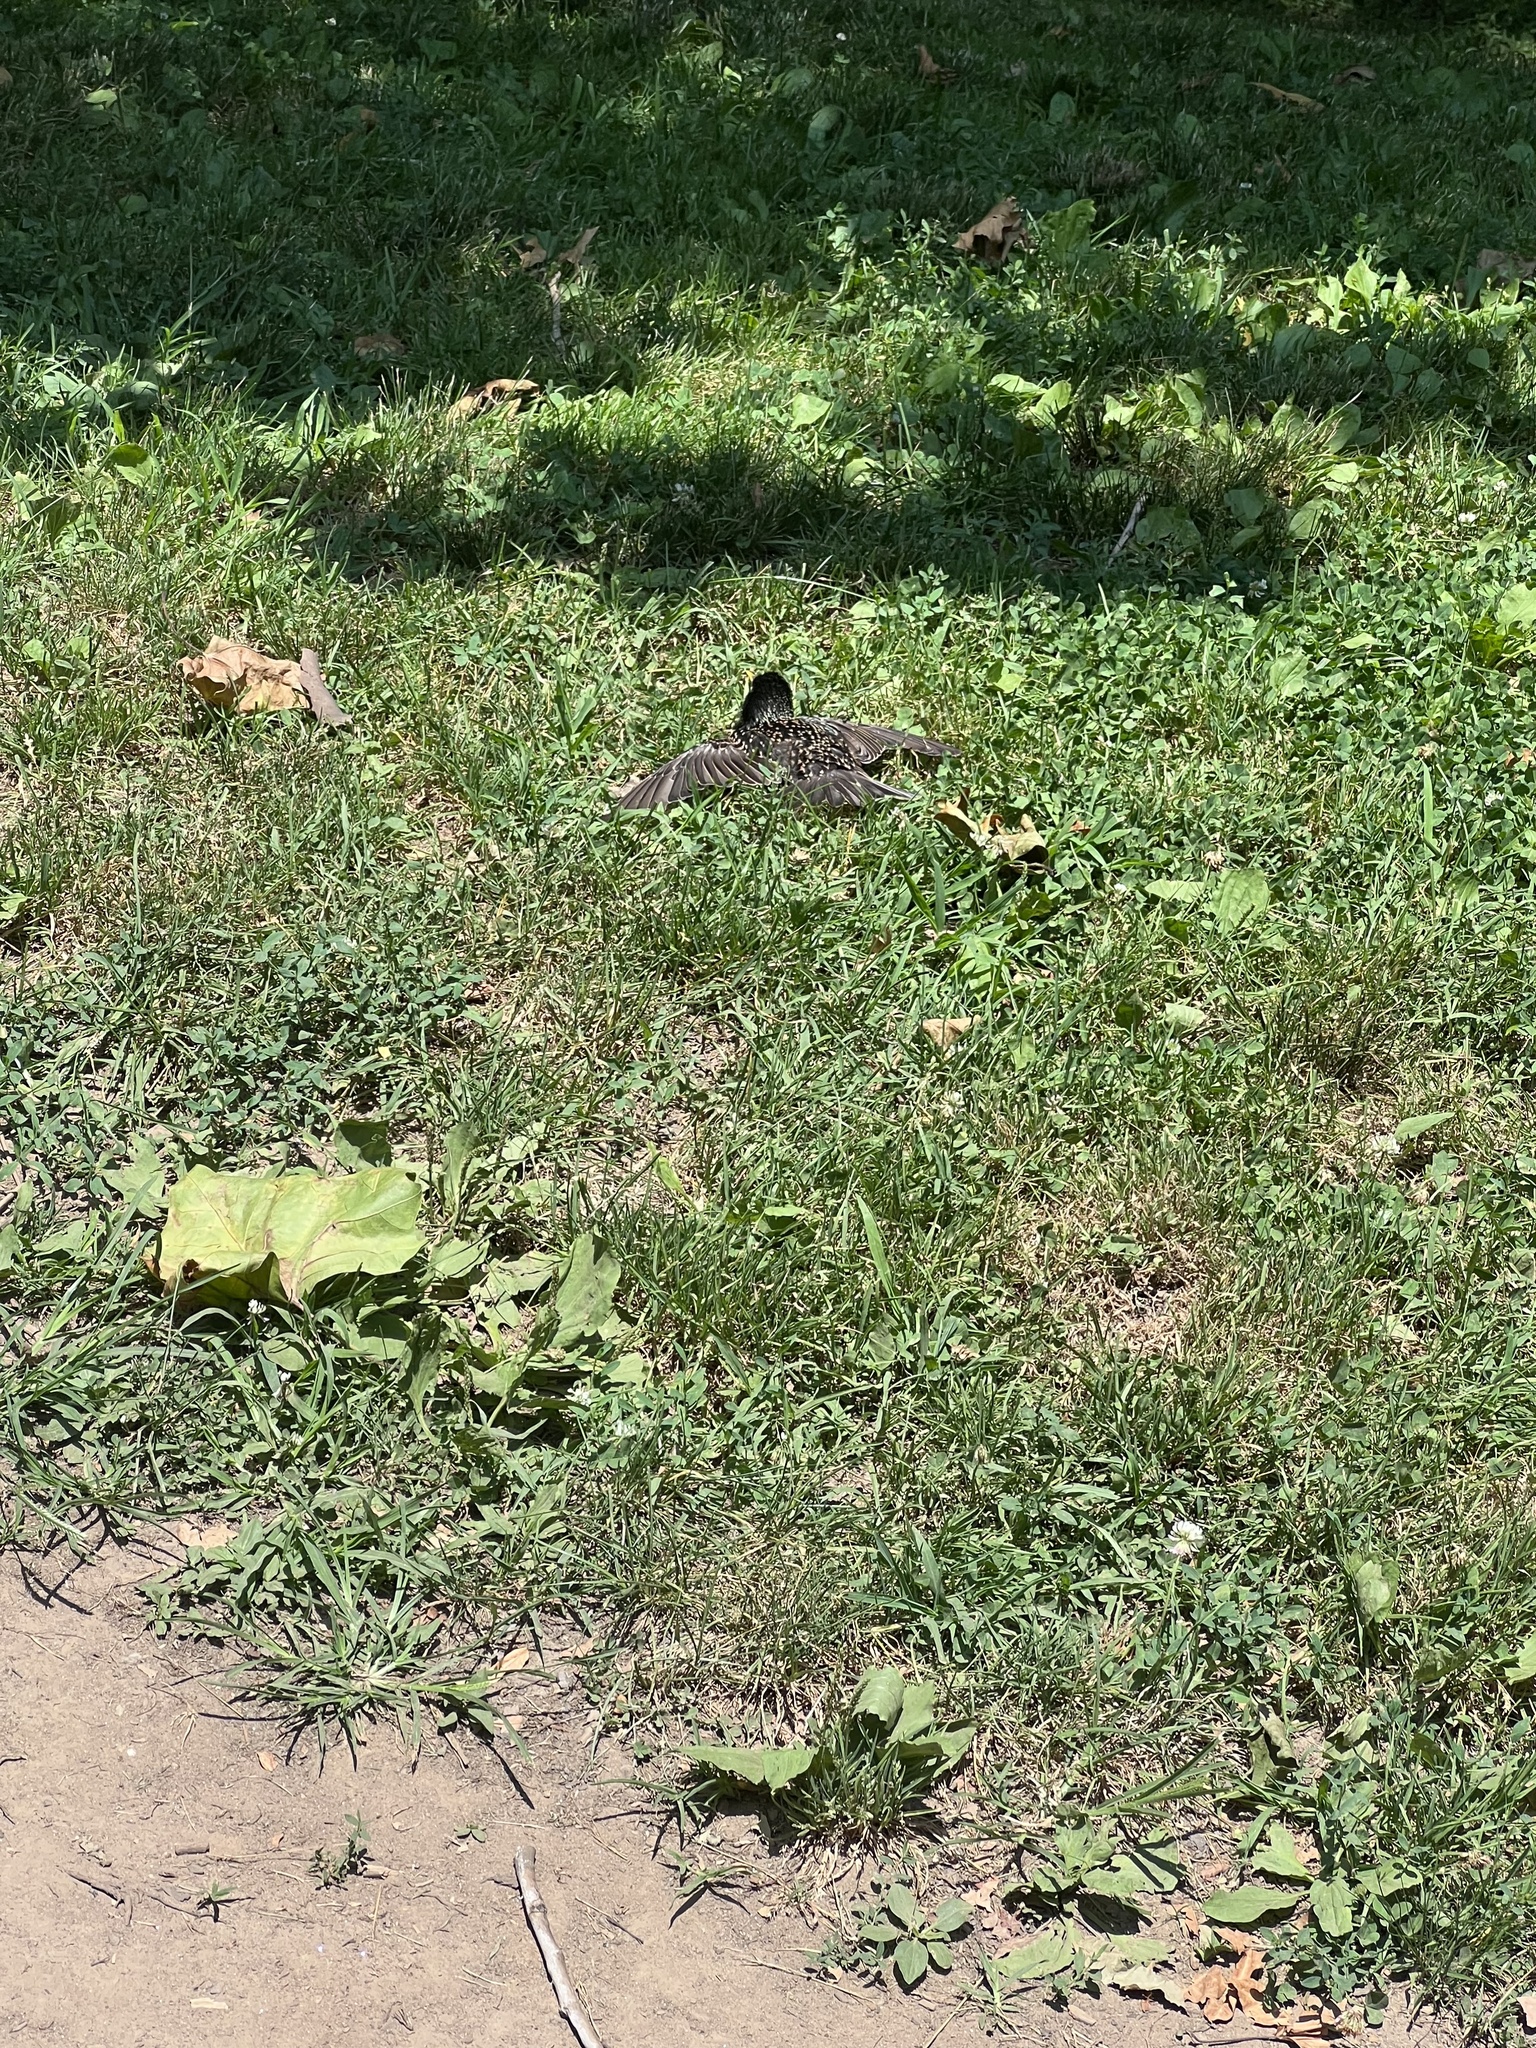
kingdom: Animalia
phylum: Chordata
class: Aves
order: Passeriformes
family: Sturnidae
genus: Sturnus
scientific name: Sturnus vulgaris
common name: Common starling
